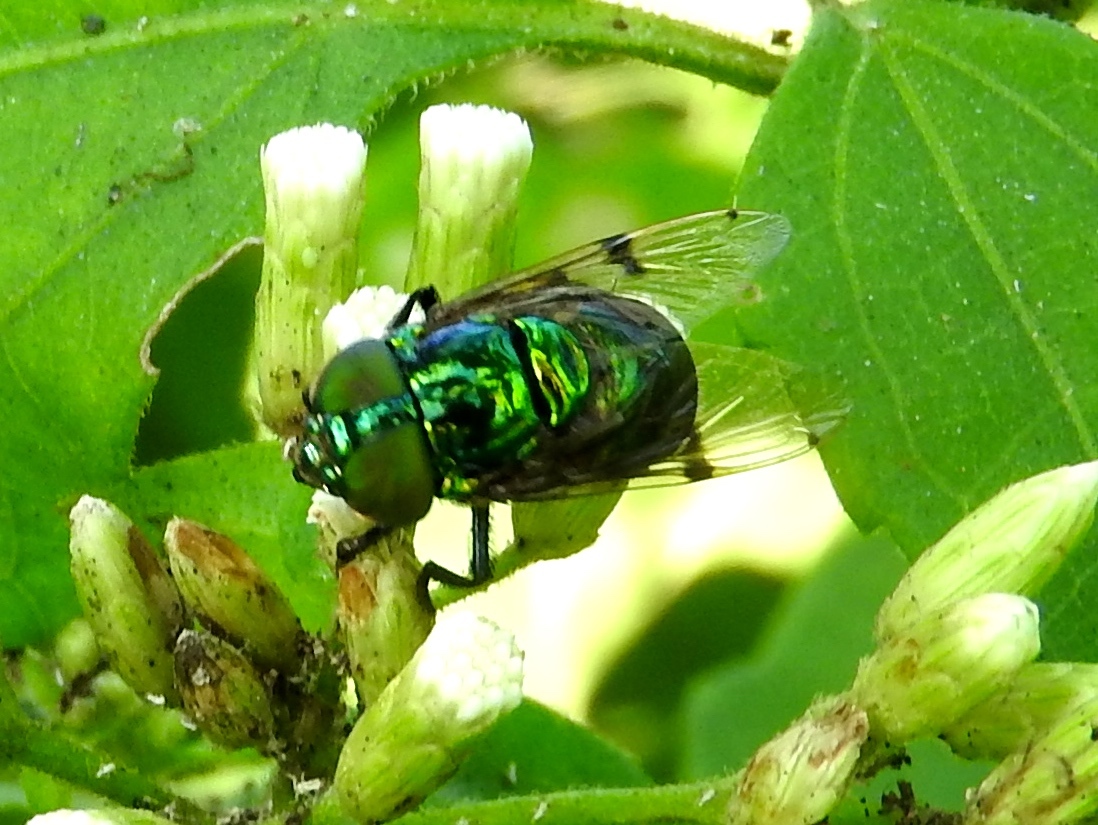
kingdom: Animalia
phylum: Arthropoda
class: Insecta
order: Diptera
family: Syrphidae
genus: Ornidia
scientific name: Ornidia obesa
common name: Syrphid fly
